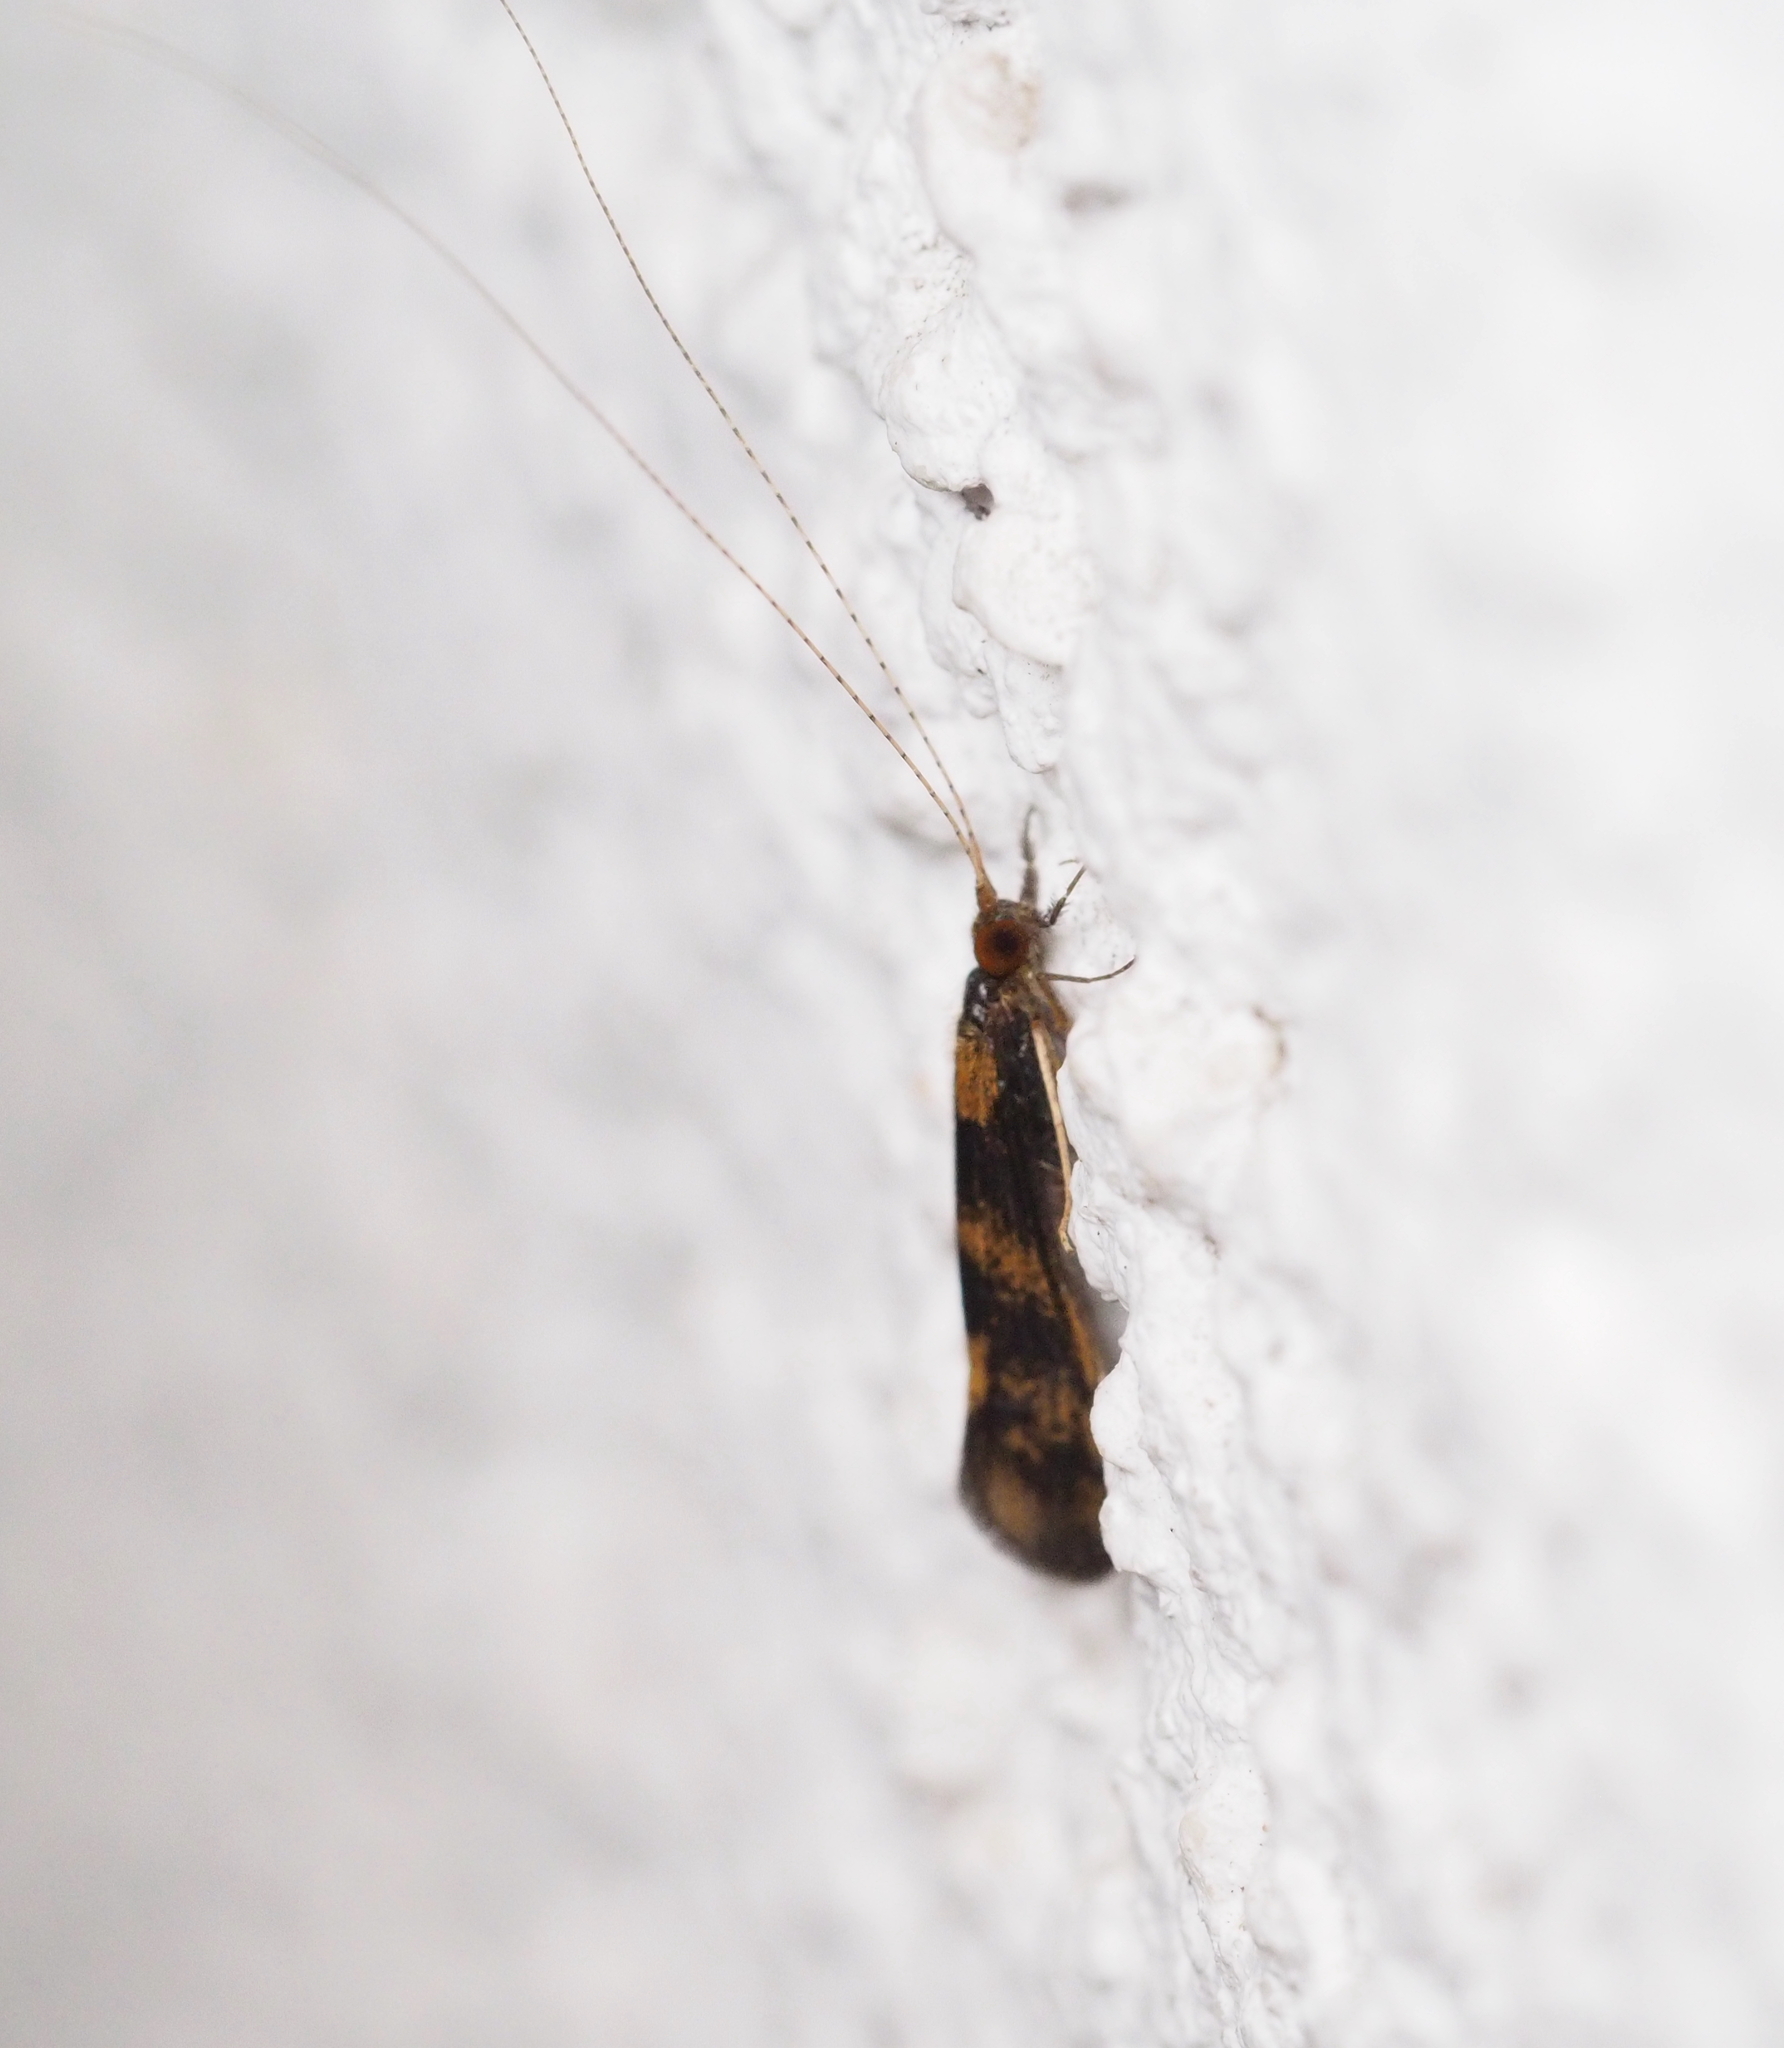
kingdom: Animalia
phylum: Arthropoda
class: Insecta
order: Trichoptera
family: Leptoceridae
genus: Mystacides
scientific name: Mystacides longicornis
